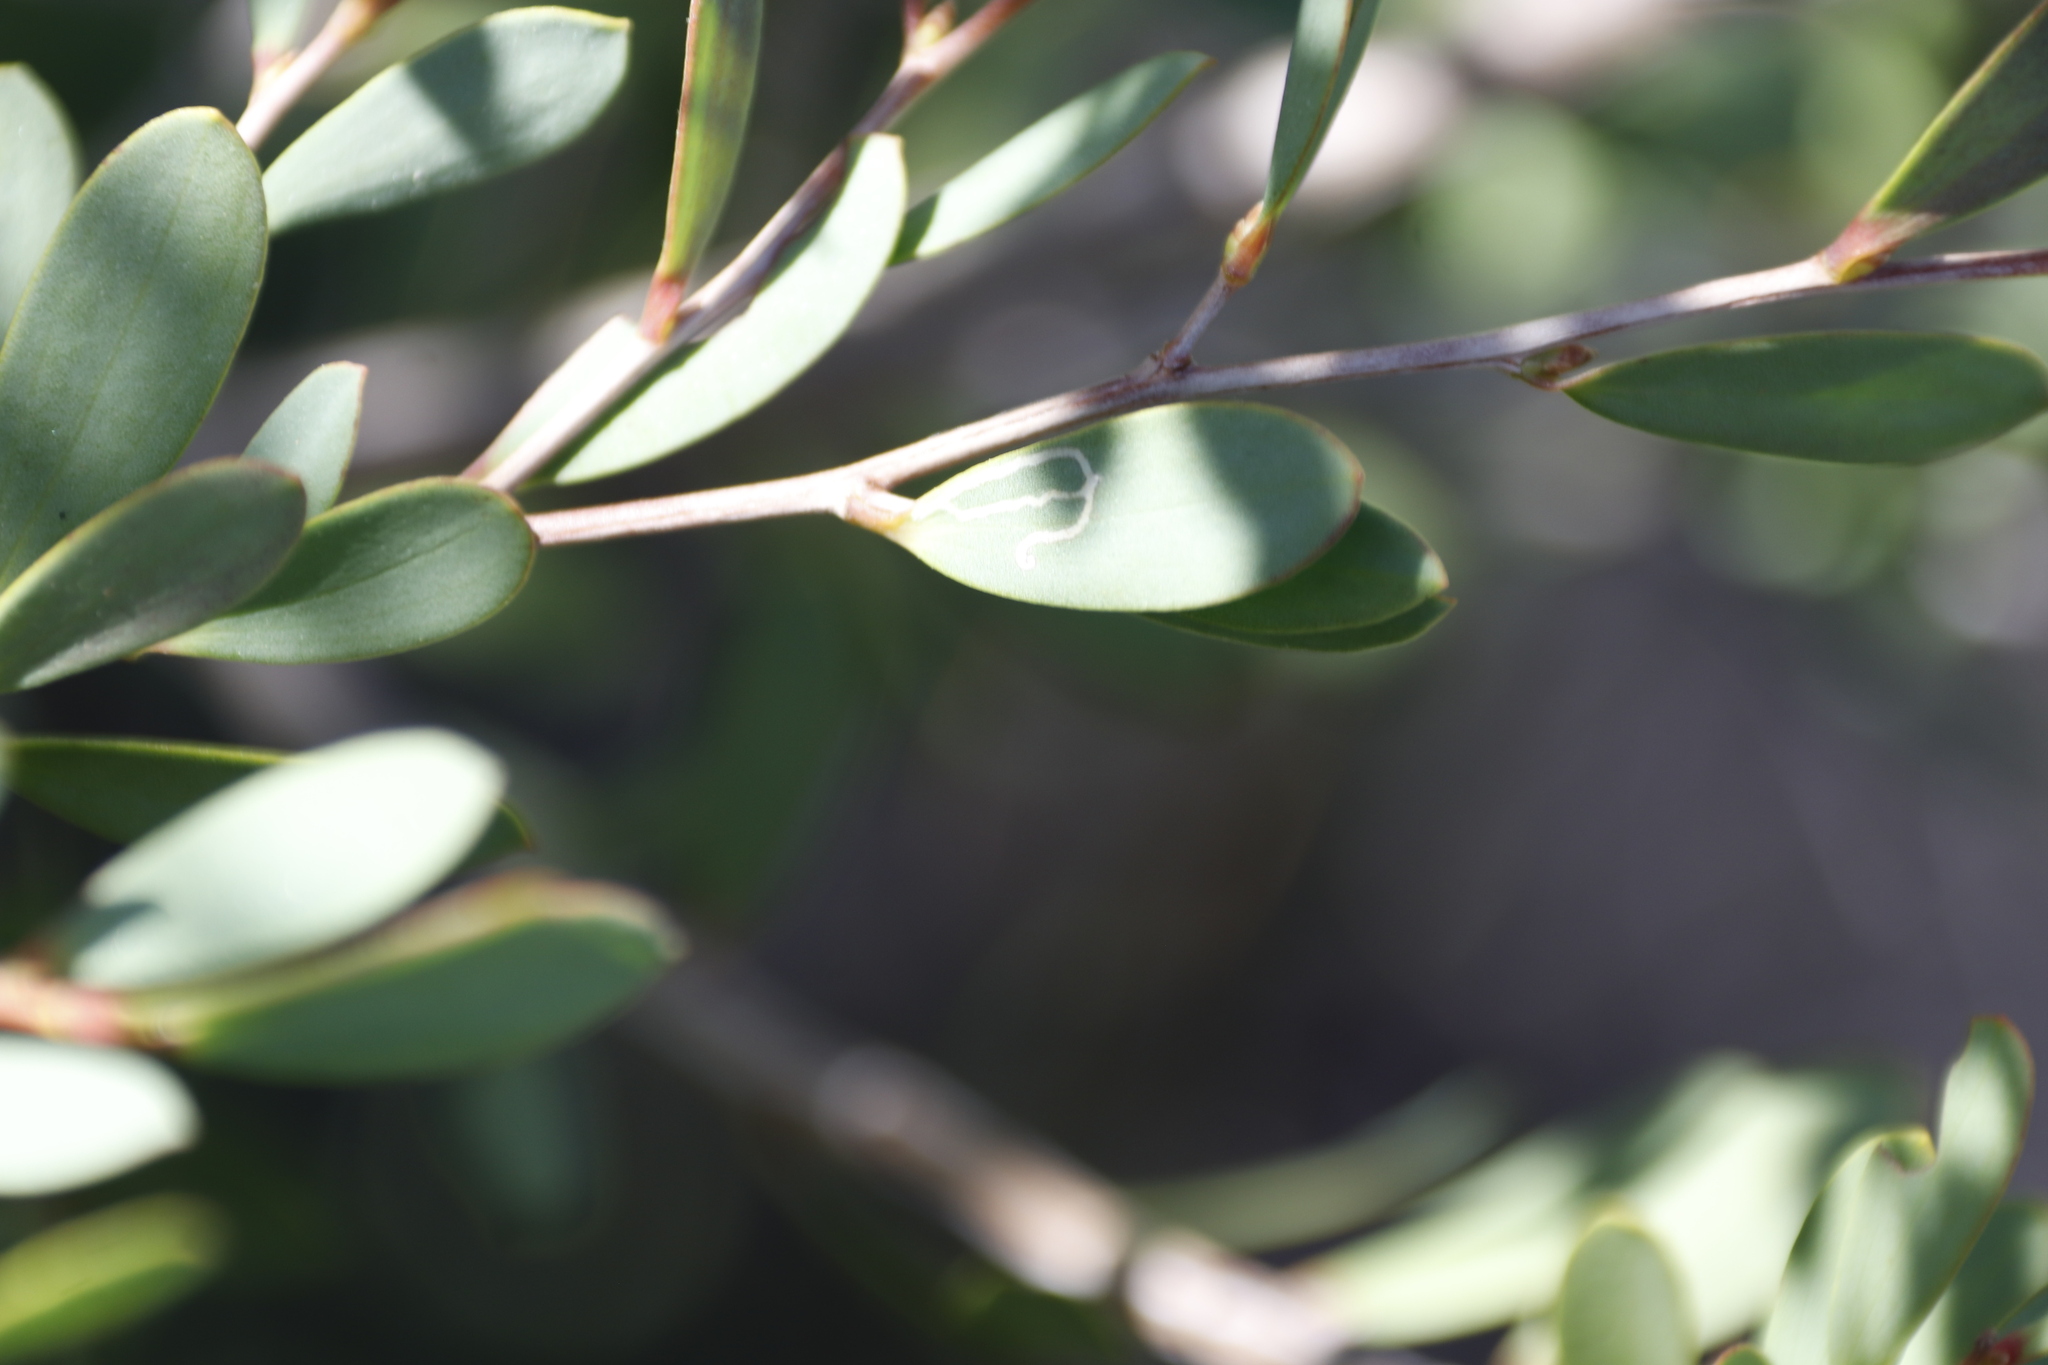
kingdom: Plantae
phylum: Tracheophyta
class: Magnoliopsida
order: Myrtales
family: Myrtaceae
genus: Leptospermum
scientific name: Leptospermum laevigatum
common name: Australian teatree
